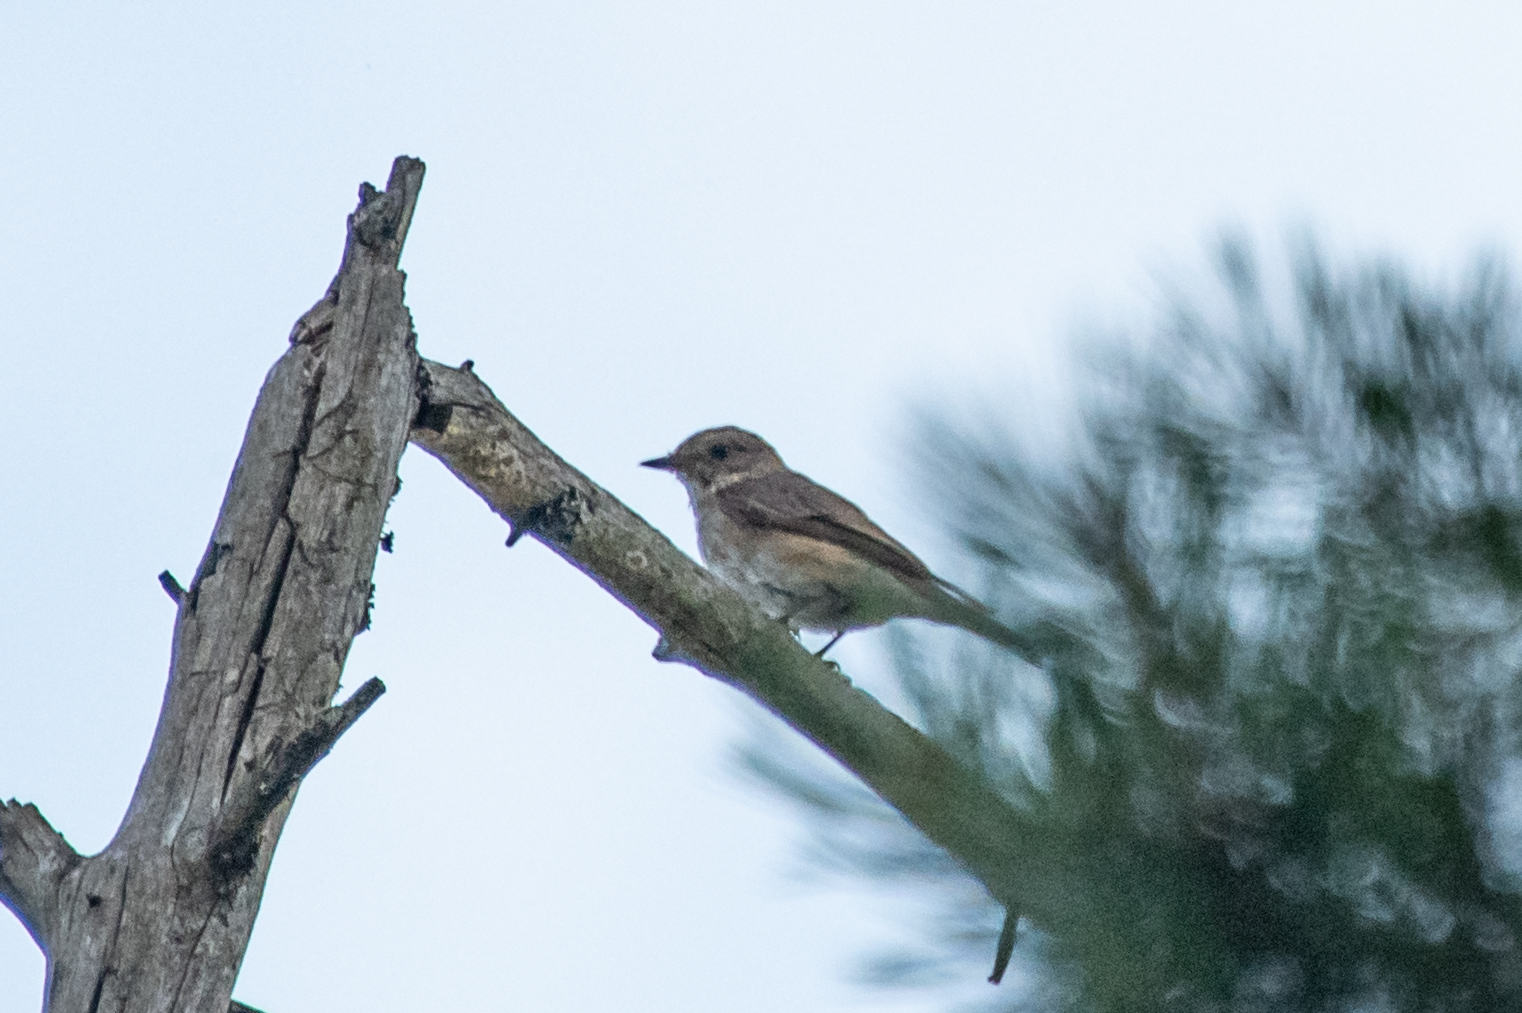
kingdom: Animalia
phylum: Chordata
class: Aves
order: Passeriformes
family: Muscicapidae
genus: Muscicapa
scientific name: Muscicapa striata
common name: Spotted flycatcher
